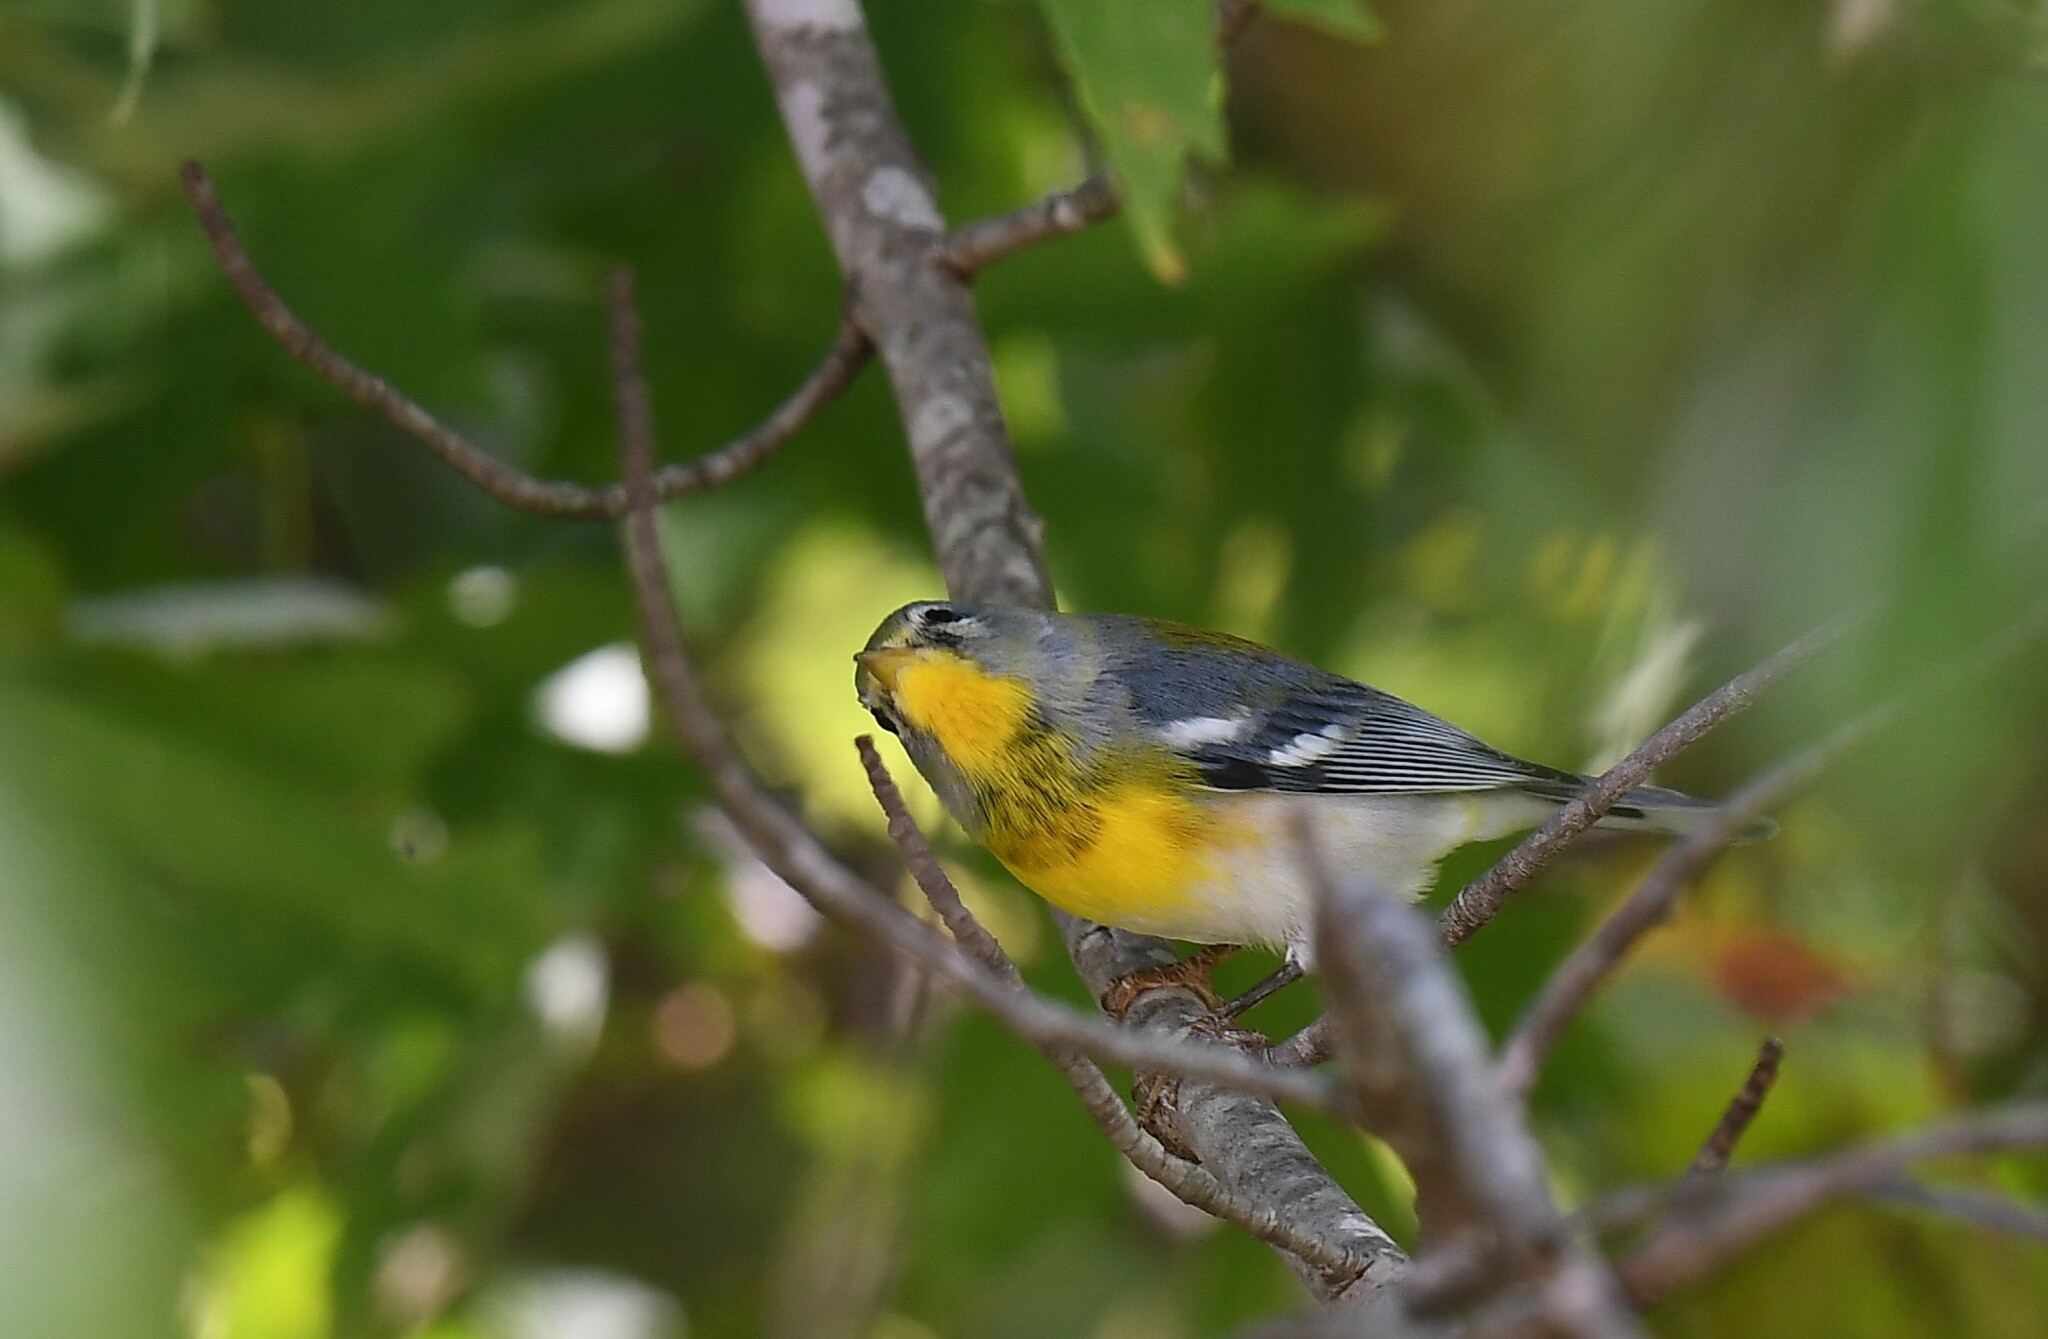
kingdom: Animalia
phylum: Chordata
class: Aves
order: Passeriformes
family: Parulidae
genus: Setophaga
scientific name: Setophaga americana
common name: Northern parula
